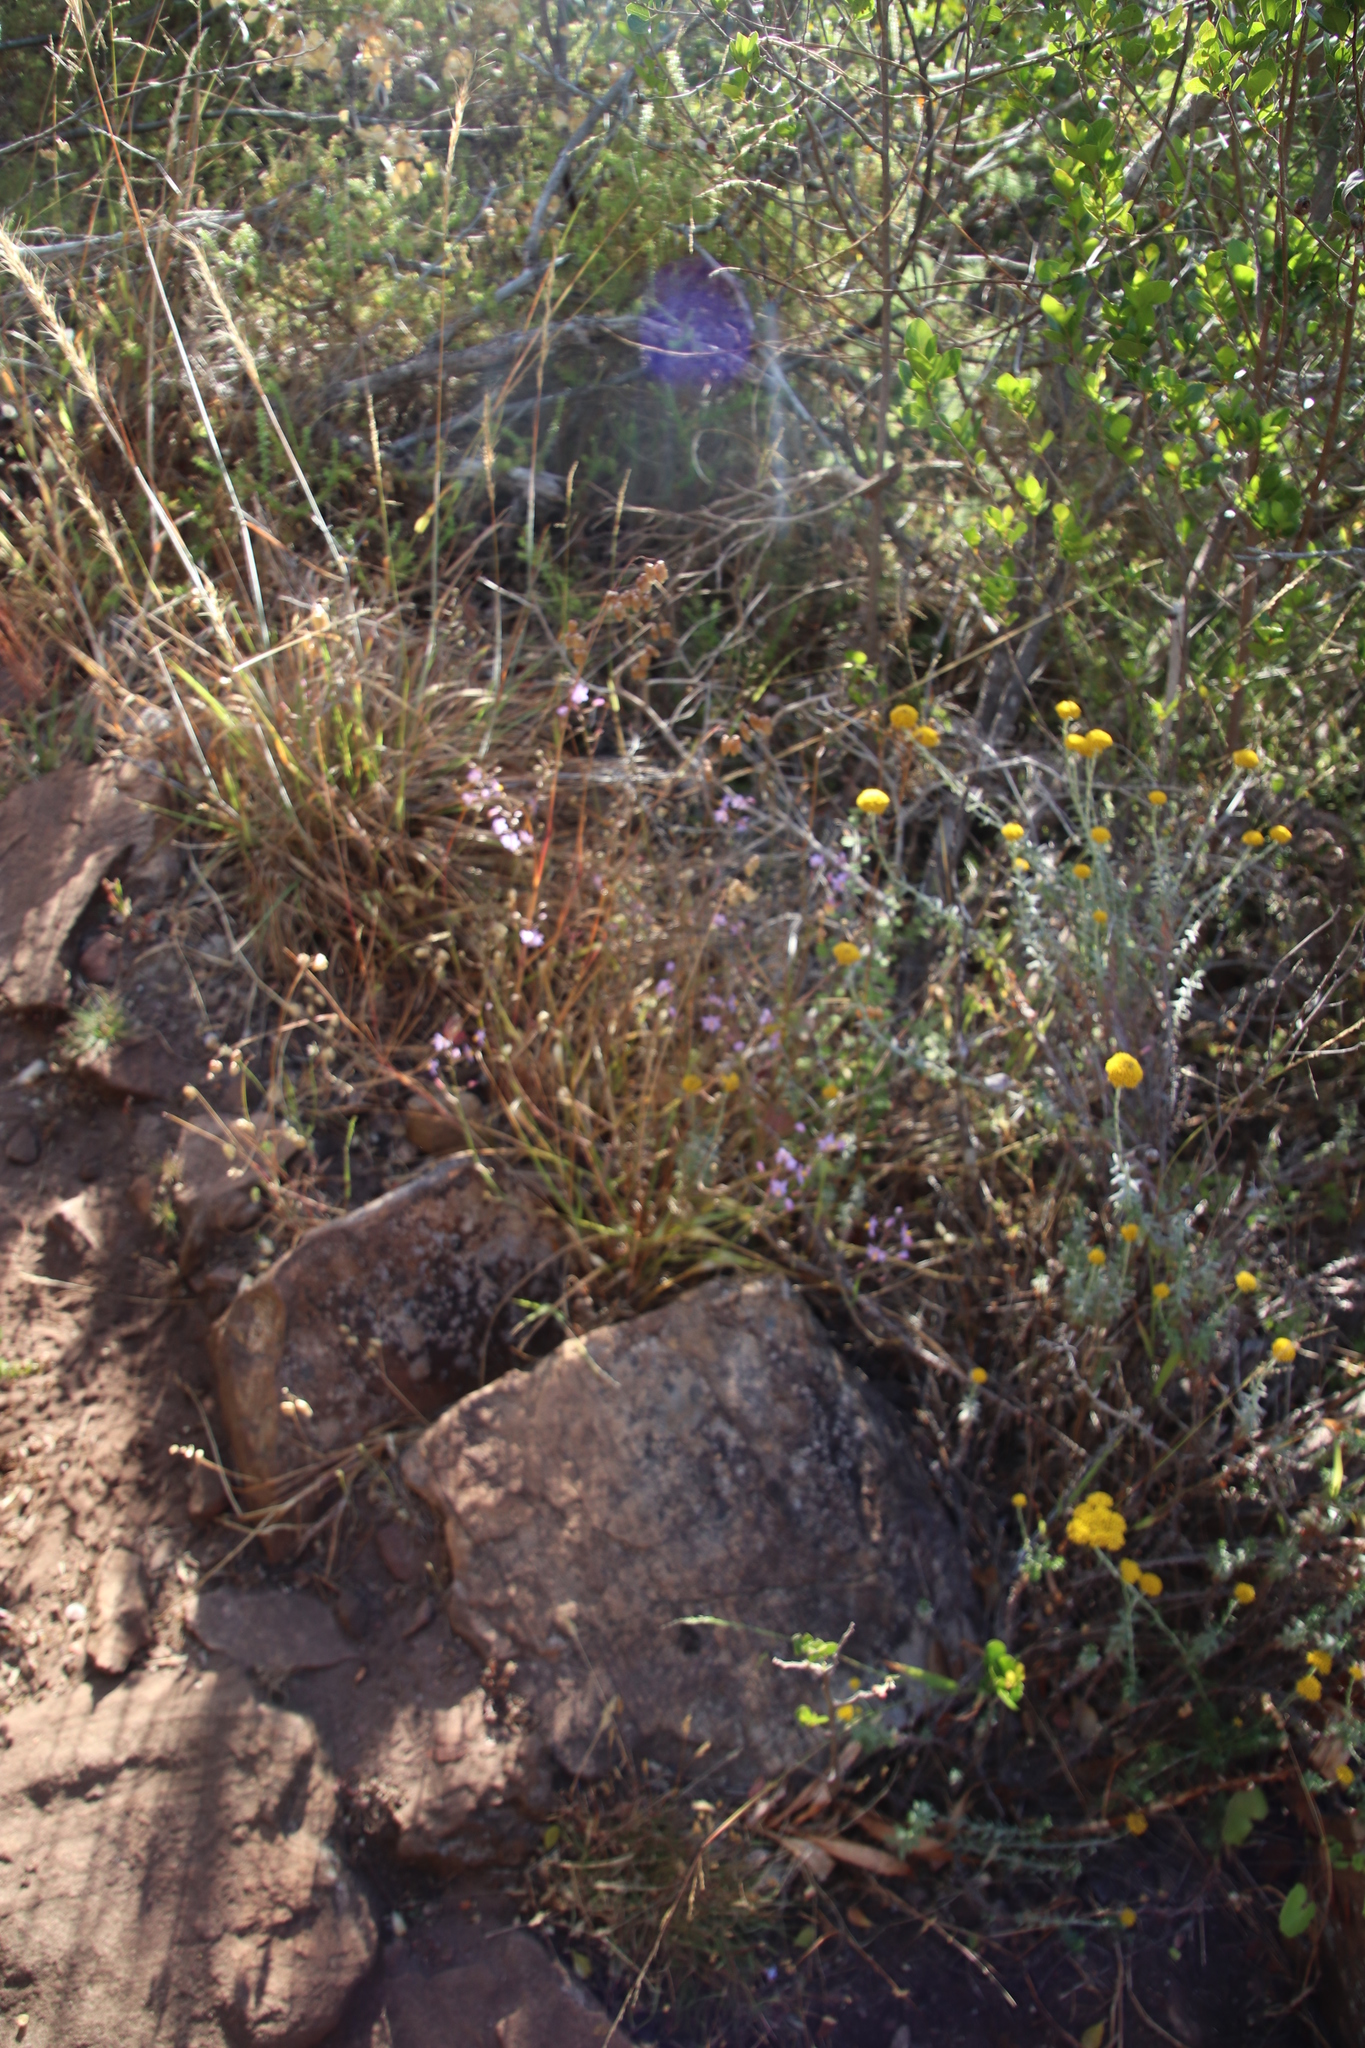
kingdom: Plantae
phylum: Tracheophyta
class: Liliopsida
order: Asparagales
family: Tecophilaeaceae
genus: Cyanella
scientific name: Cyanella hyacinthoides
